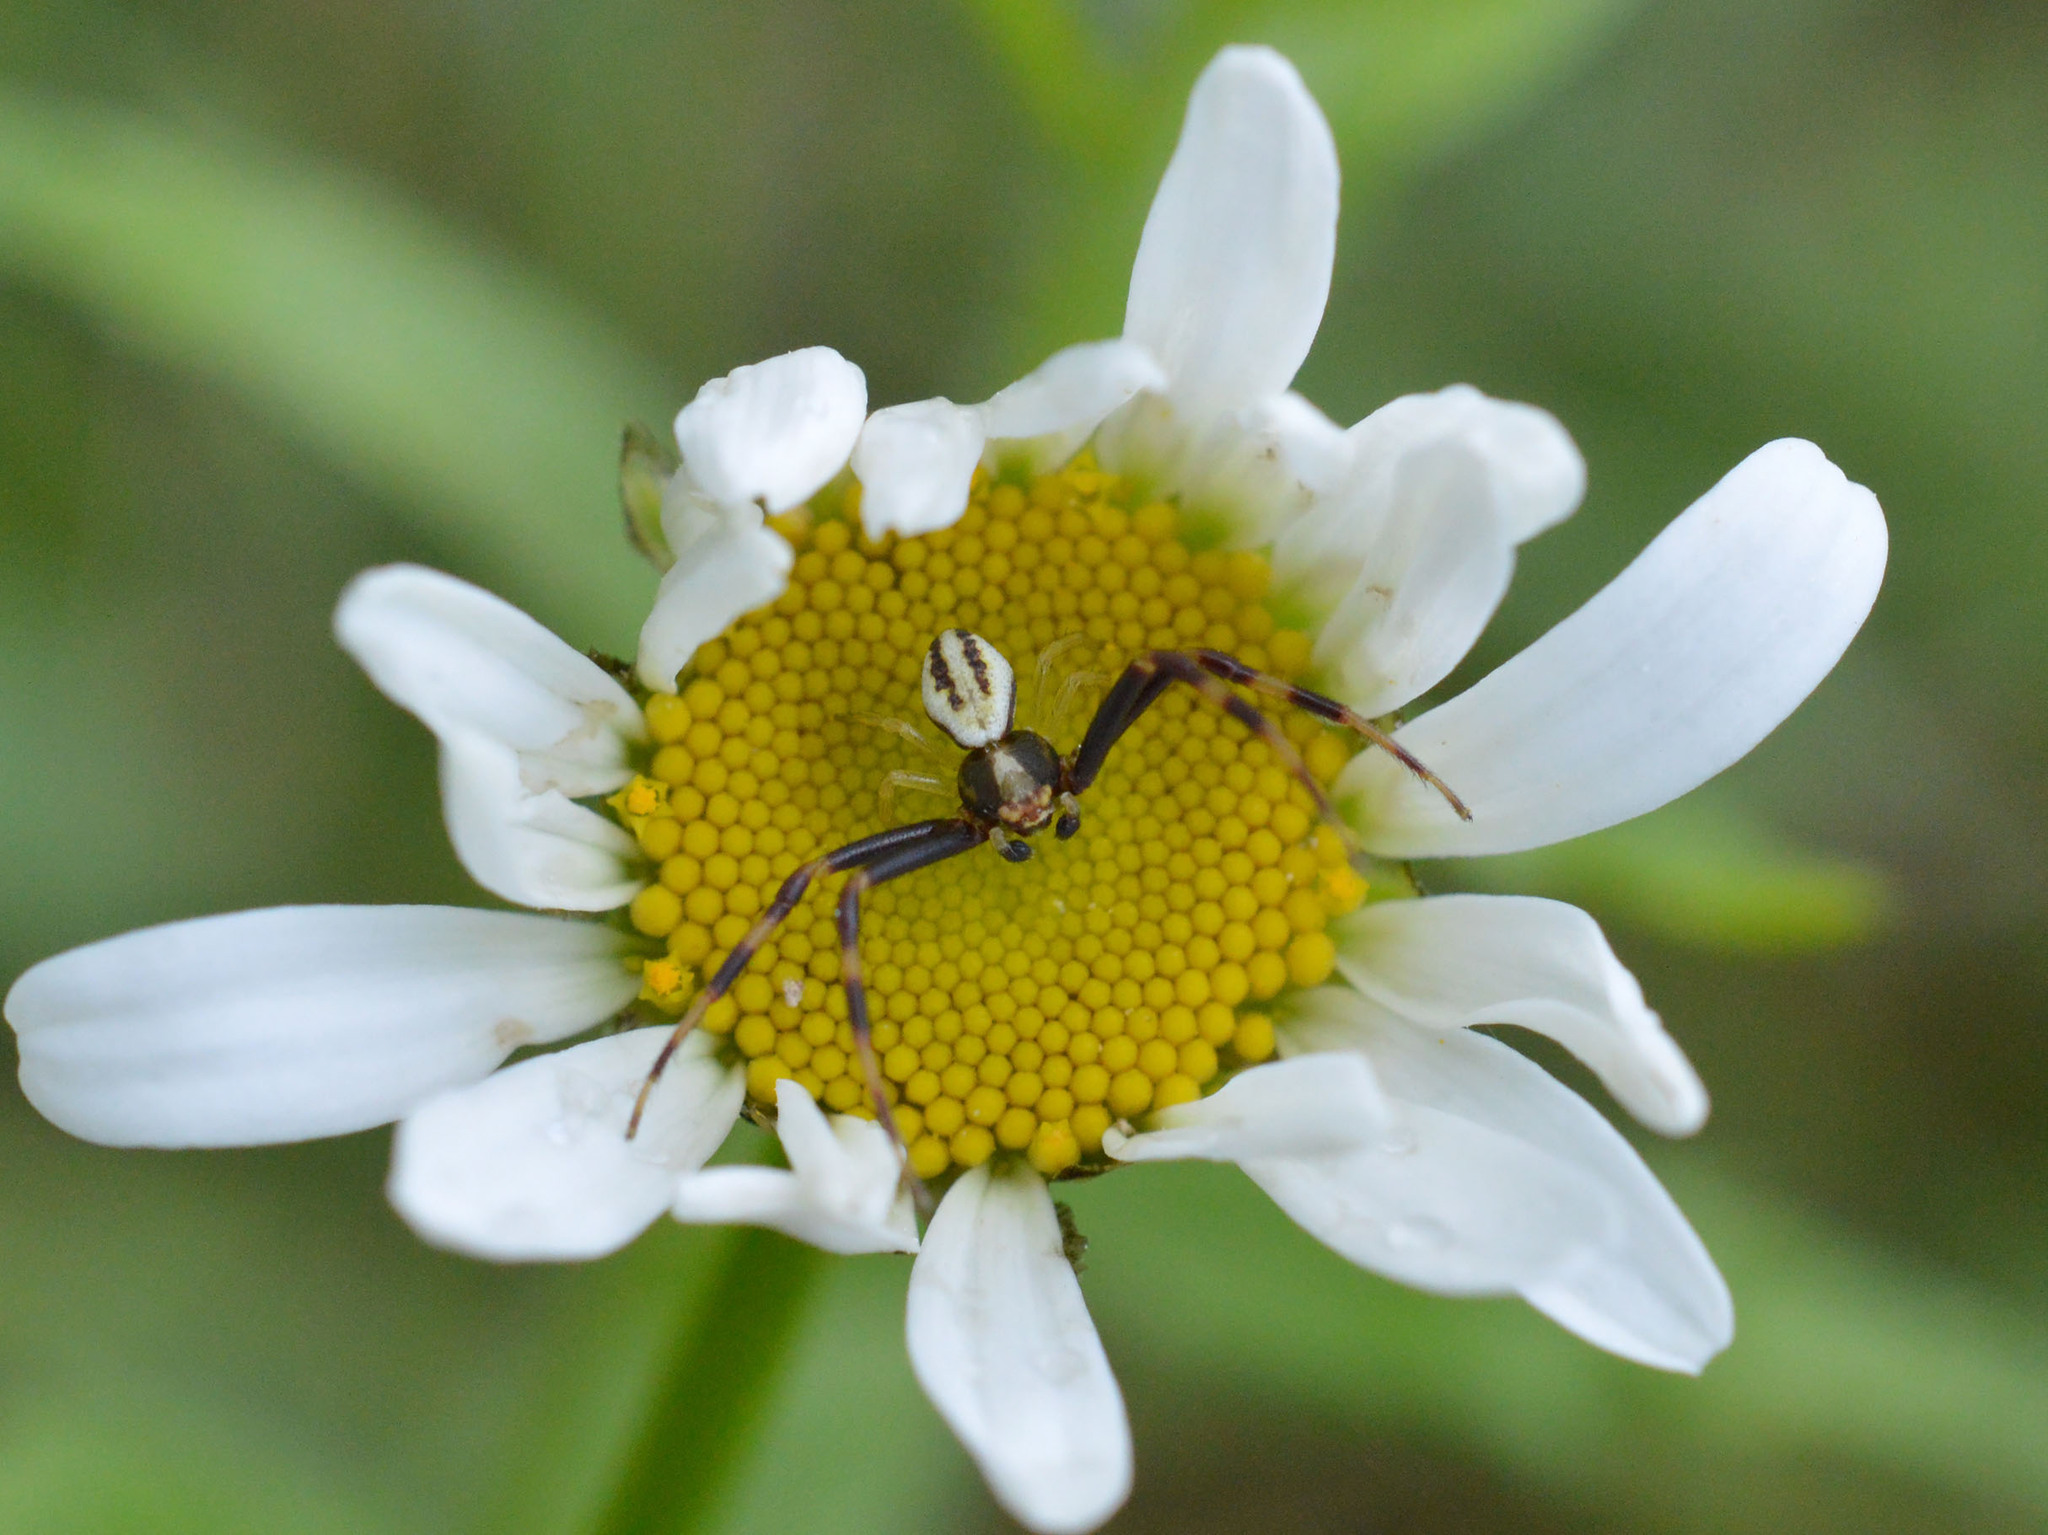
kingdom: Animalia
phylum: Arthropoda
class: Arachnida
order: Araneae
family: Thomisidae
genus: Misumena
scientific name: Misumena vatia
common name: Goldenrod crab spider
